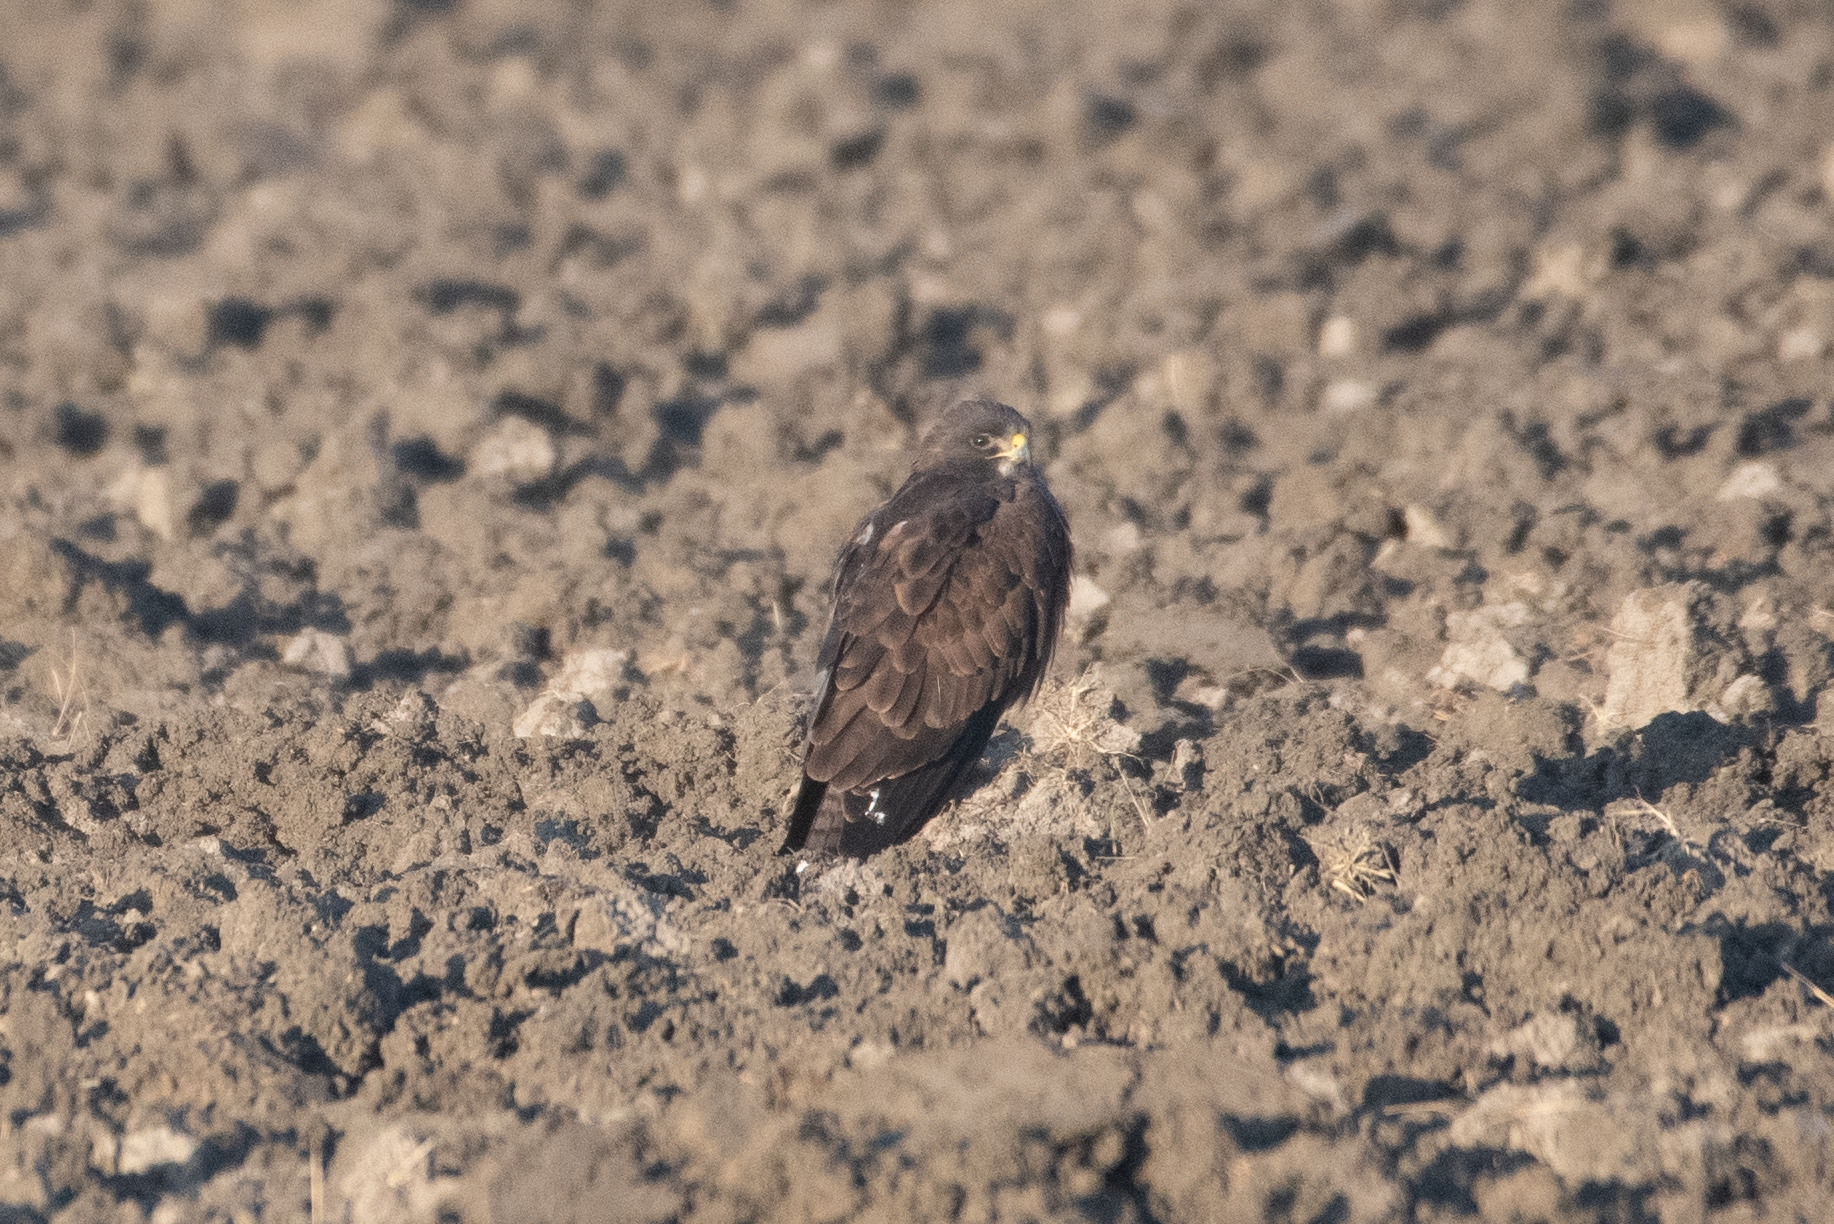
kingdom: Animalia
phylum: Chordata
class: Aves
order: Accipitriformes
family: Accipitridae
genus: Buteo
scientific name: Buteo swainsoni
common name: Swainson's hawk
